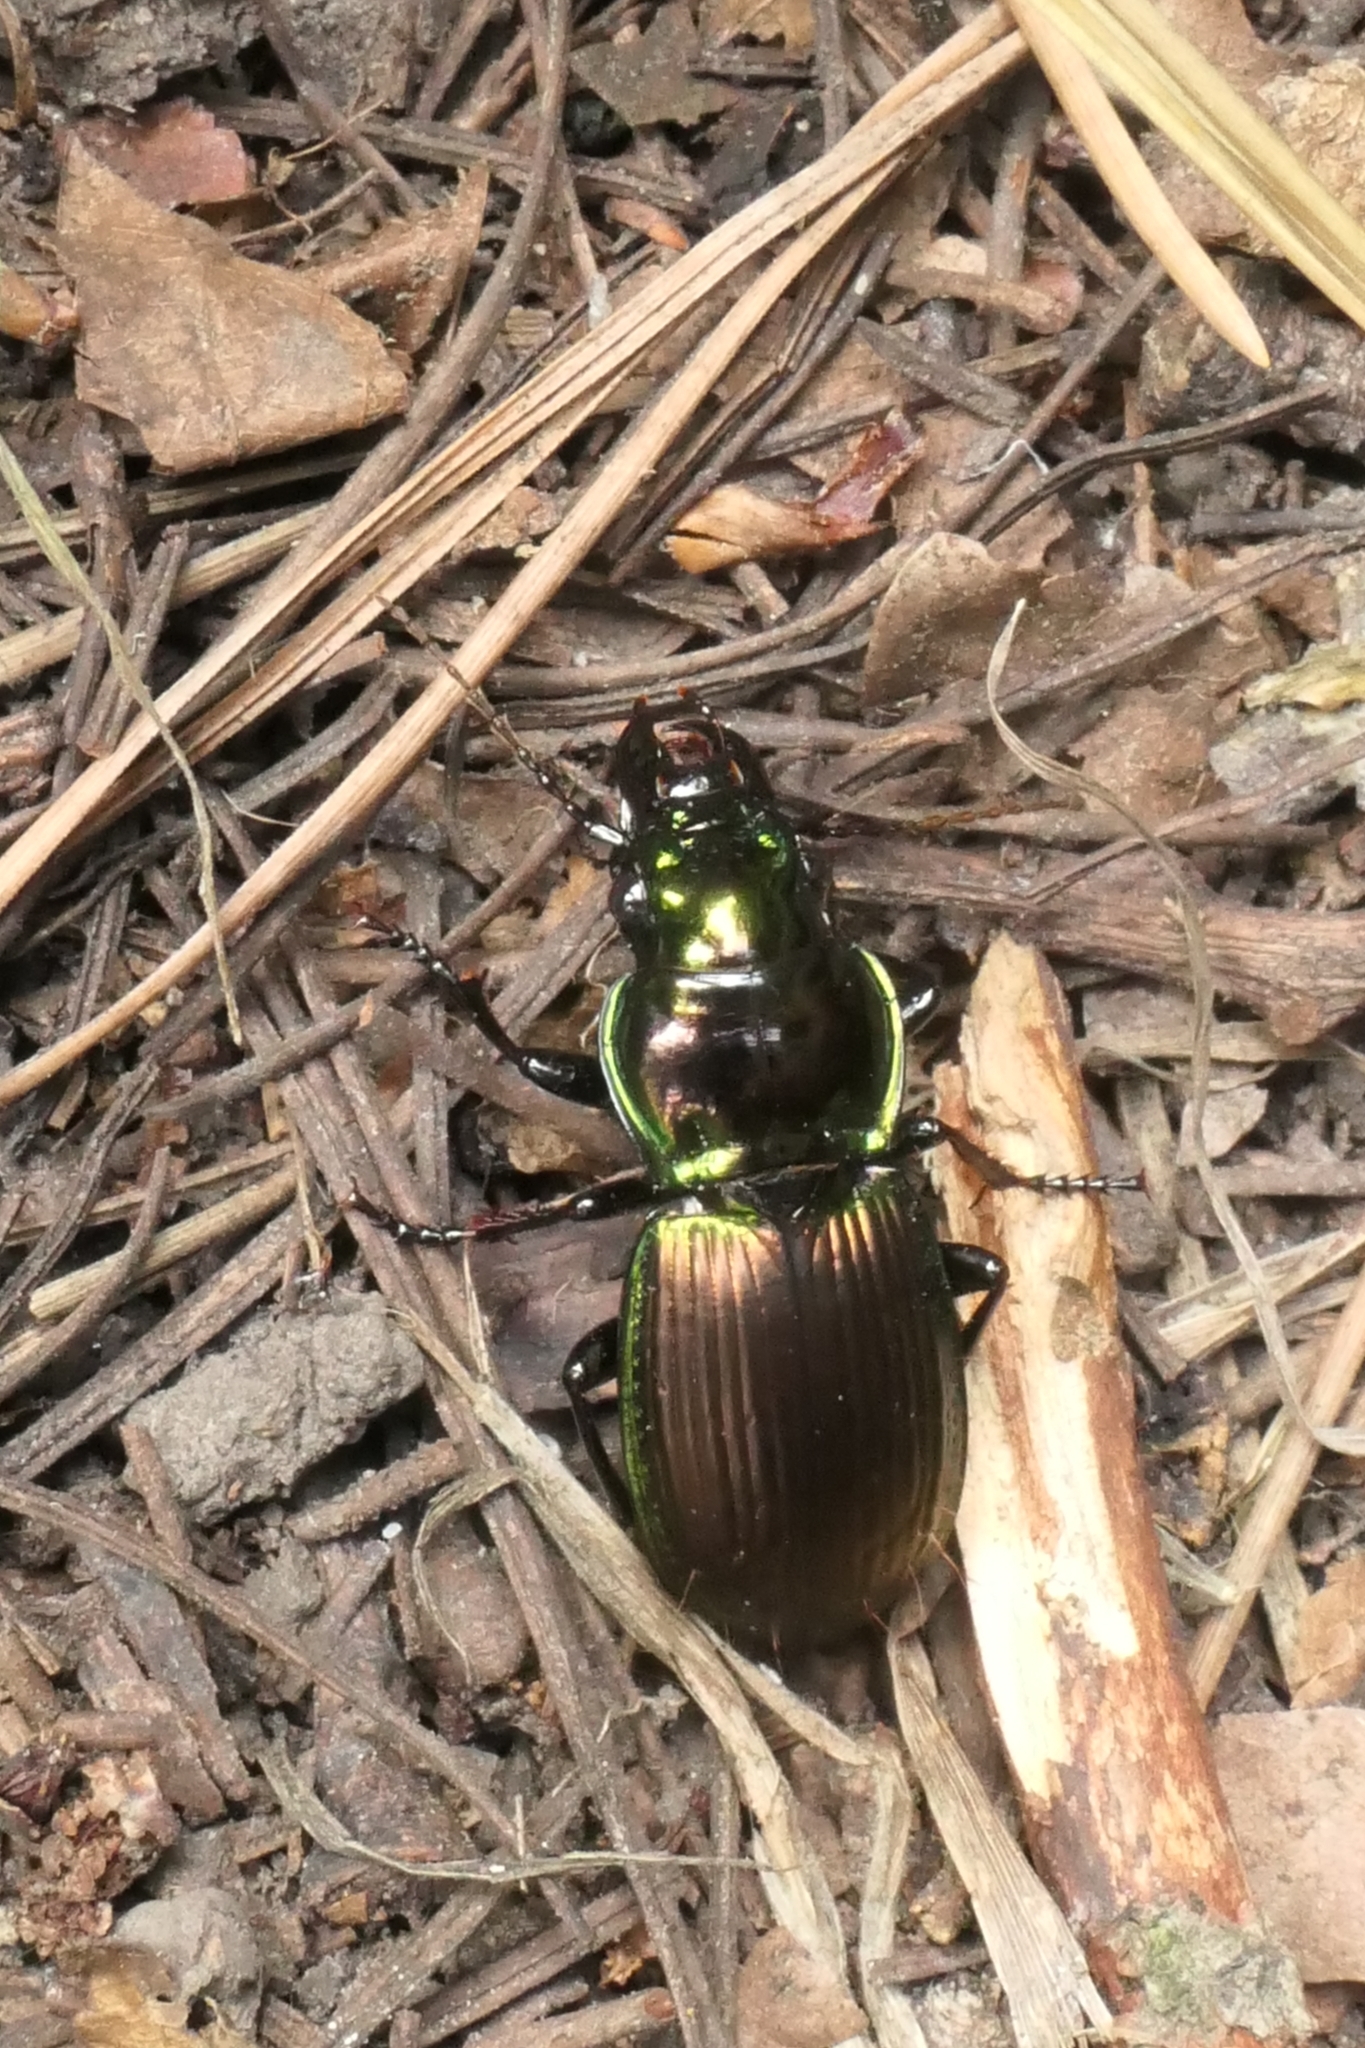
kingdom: Animalia
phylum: Arthropoda
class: Insecta
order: Coleoptera
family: Carabidae
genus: Megadromus
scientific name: Megadromus antarcticus
